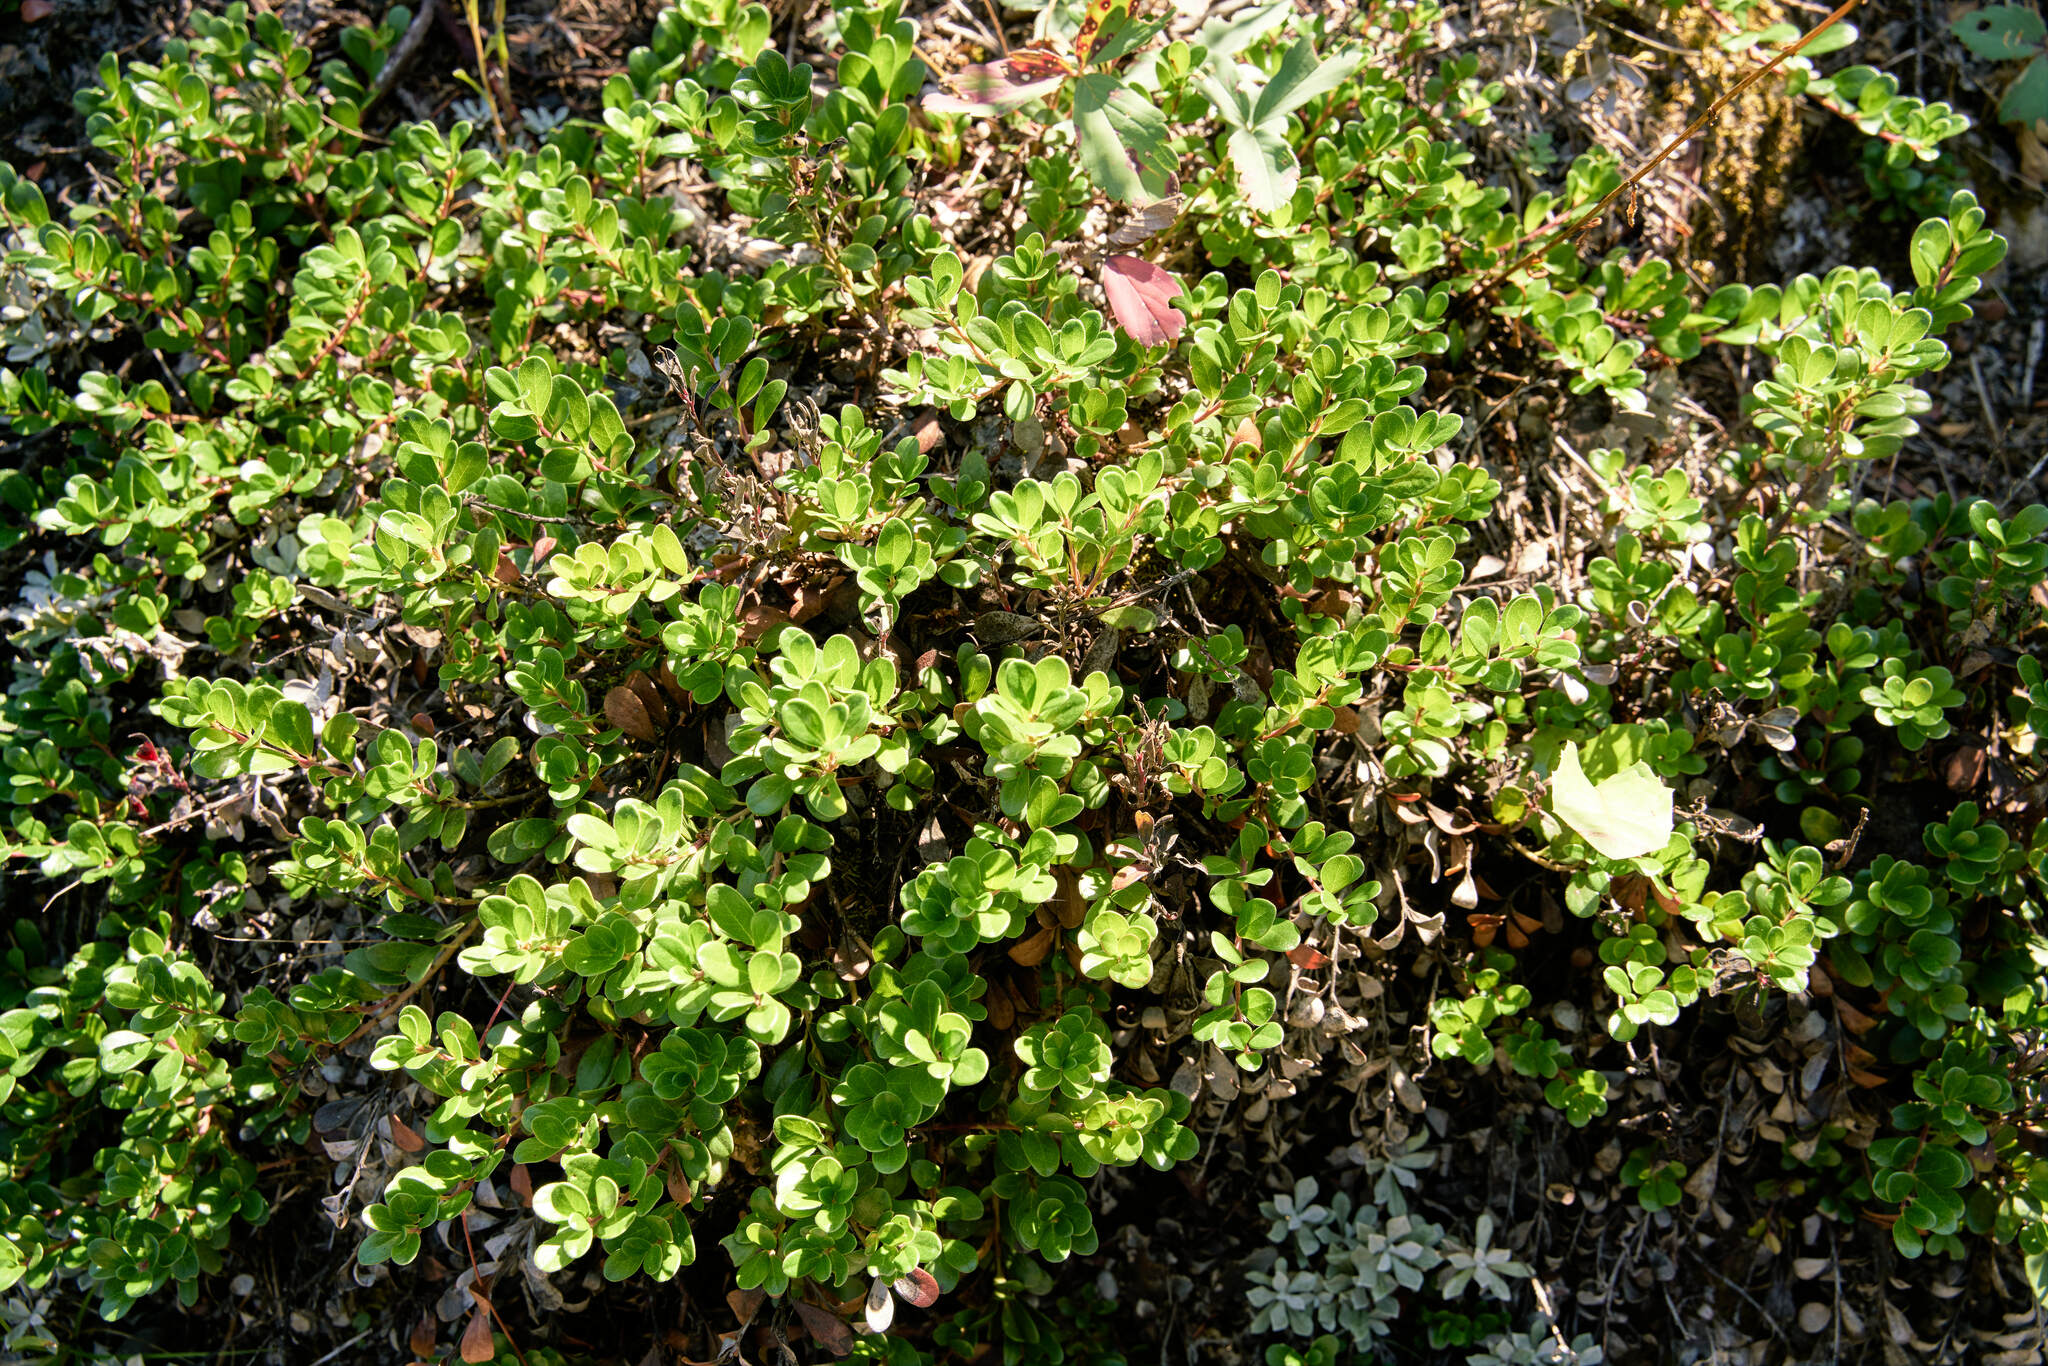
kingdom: Plantae
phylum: Tracheophyta
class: Magnoliopsida
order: Ericales
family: Ericaceae
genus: Arctostaphylos
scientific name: Arctostaphylos uva-ursi
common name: Bearberry
